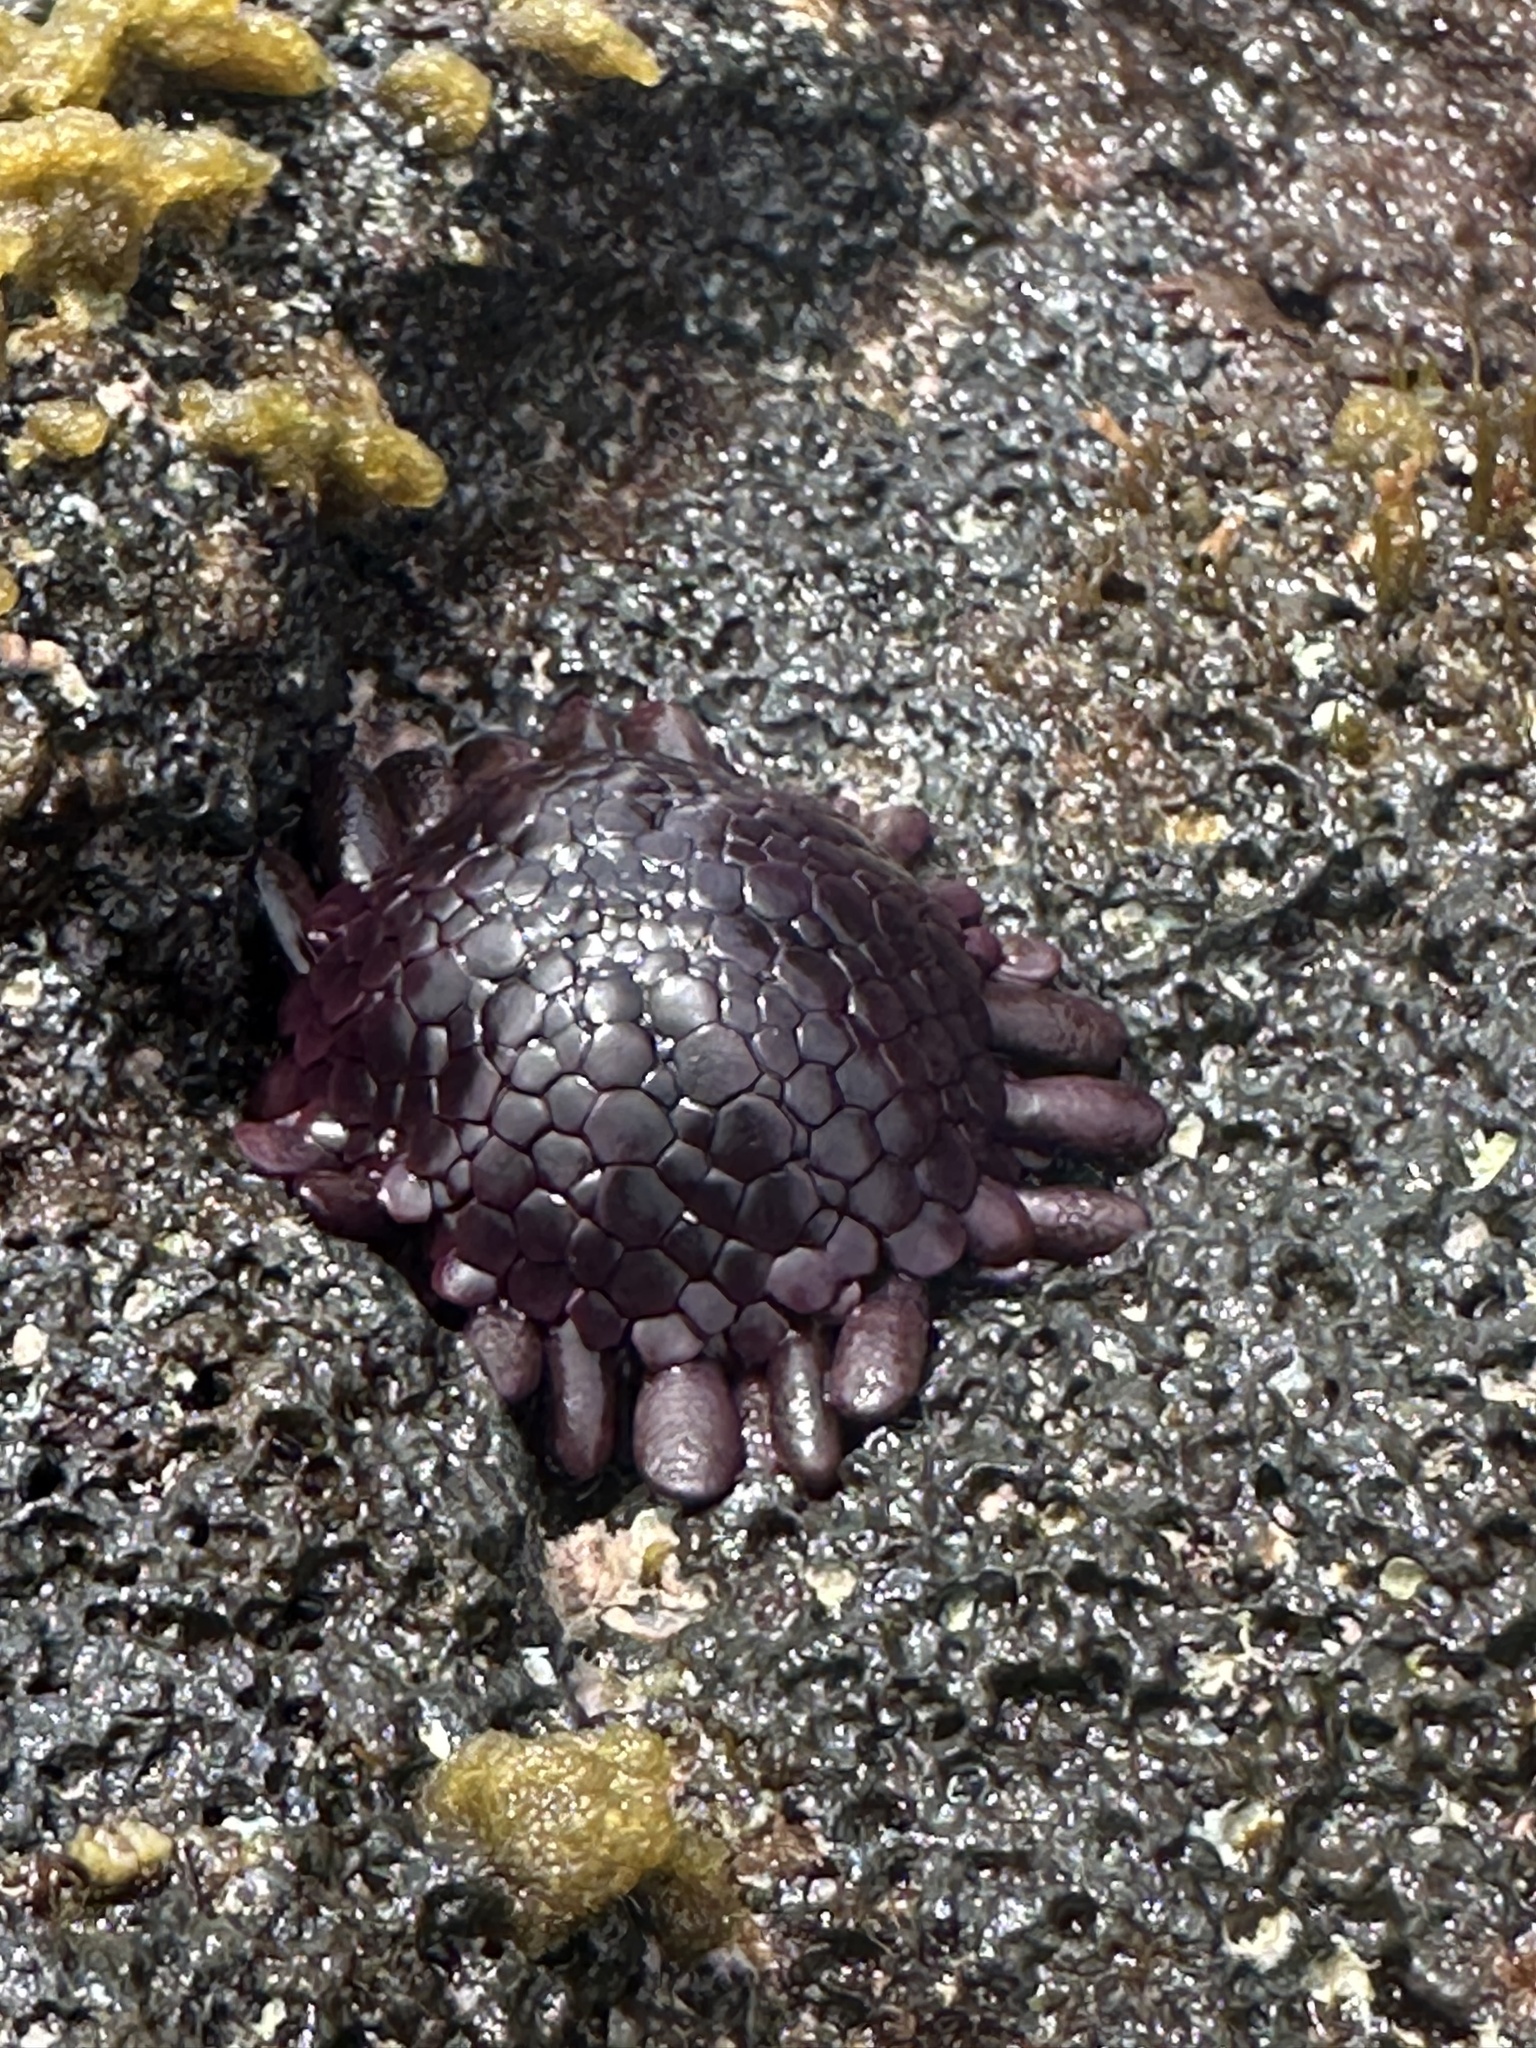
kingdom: Animalia
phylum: Echinodermata
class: Echinoidea
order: Camarodonta
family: Echinometridae
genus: Colobocentrotus
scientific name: Colobocentrotus atratus
